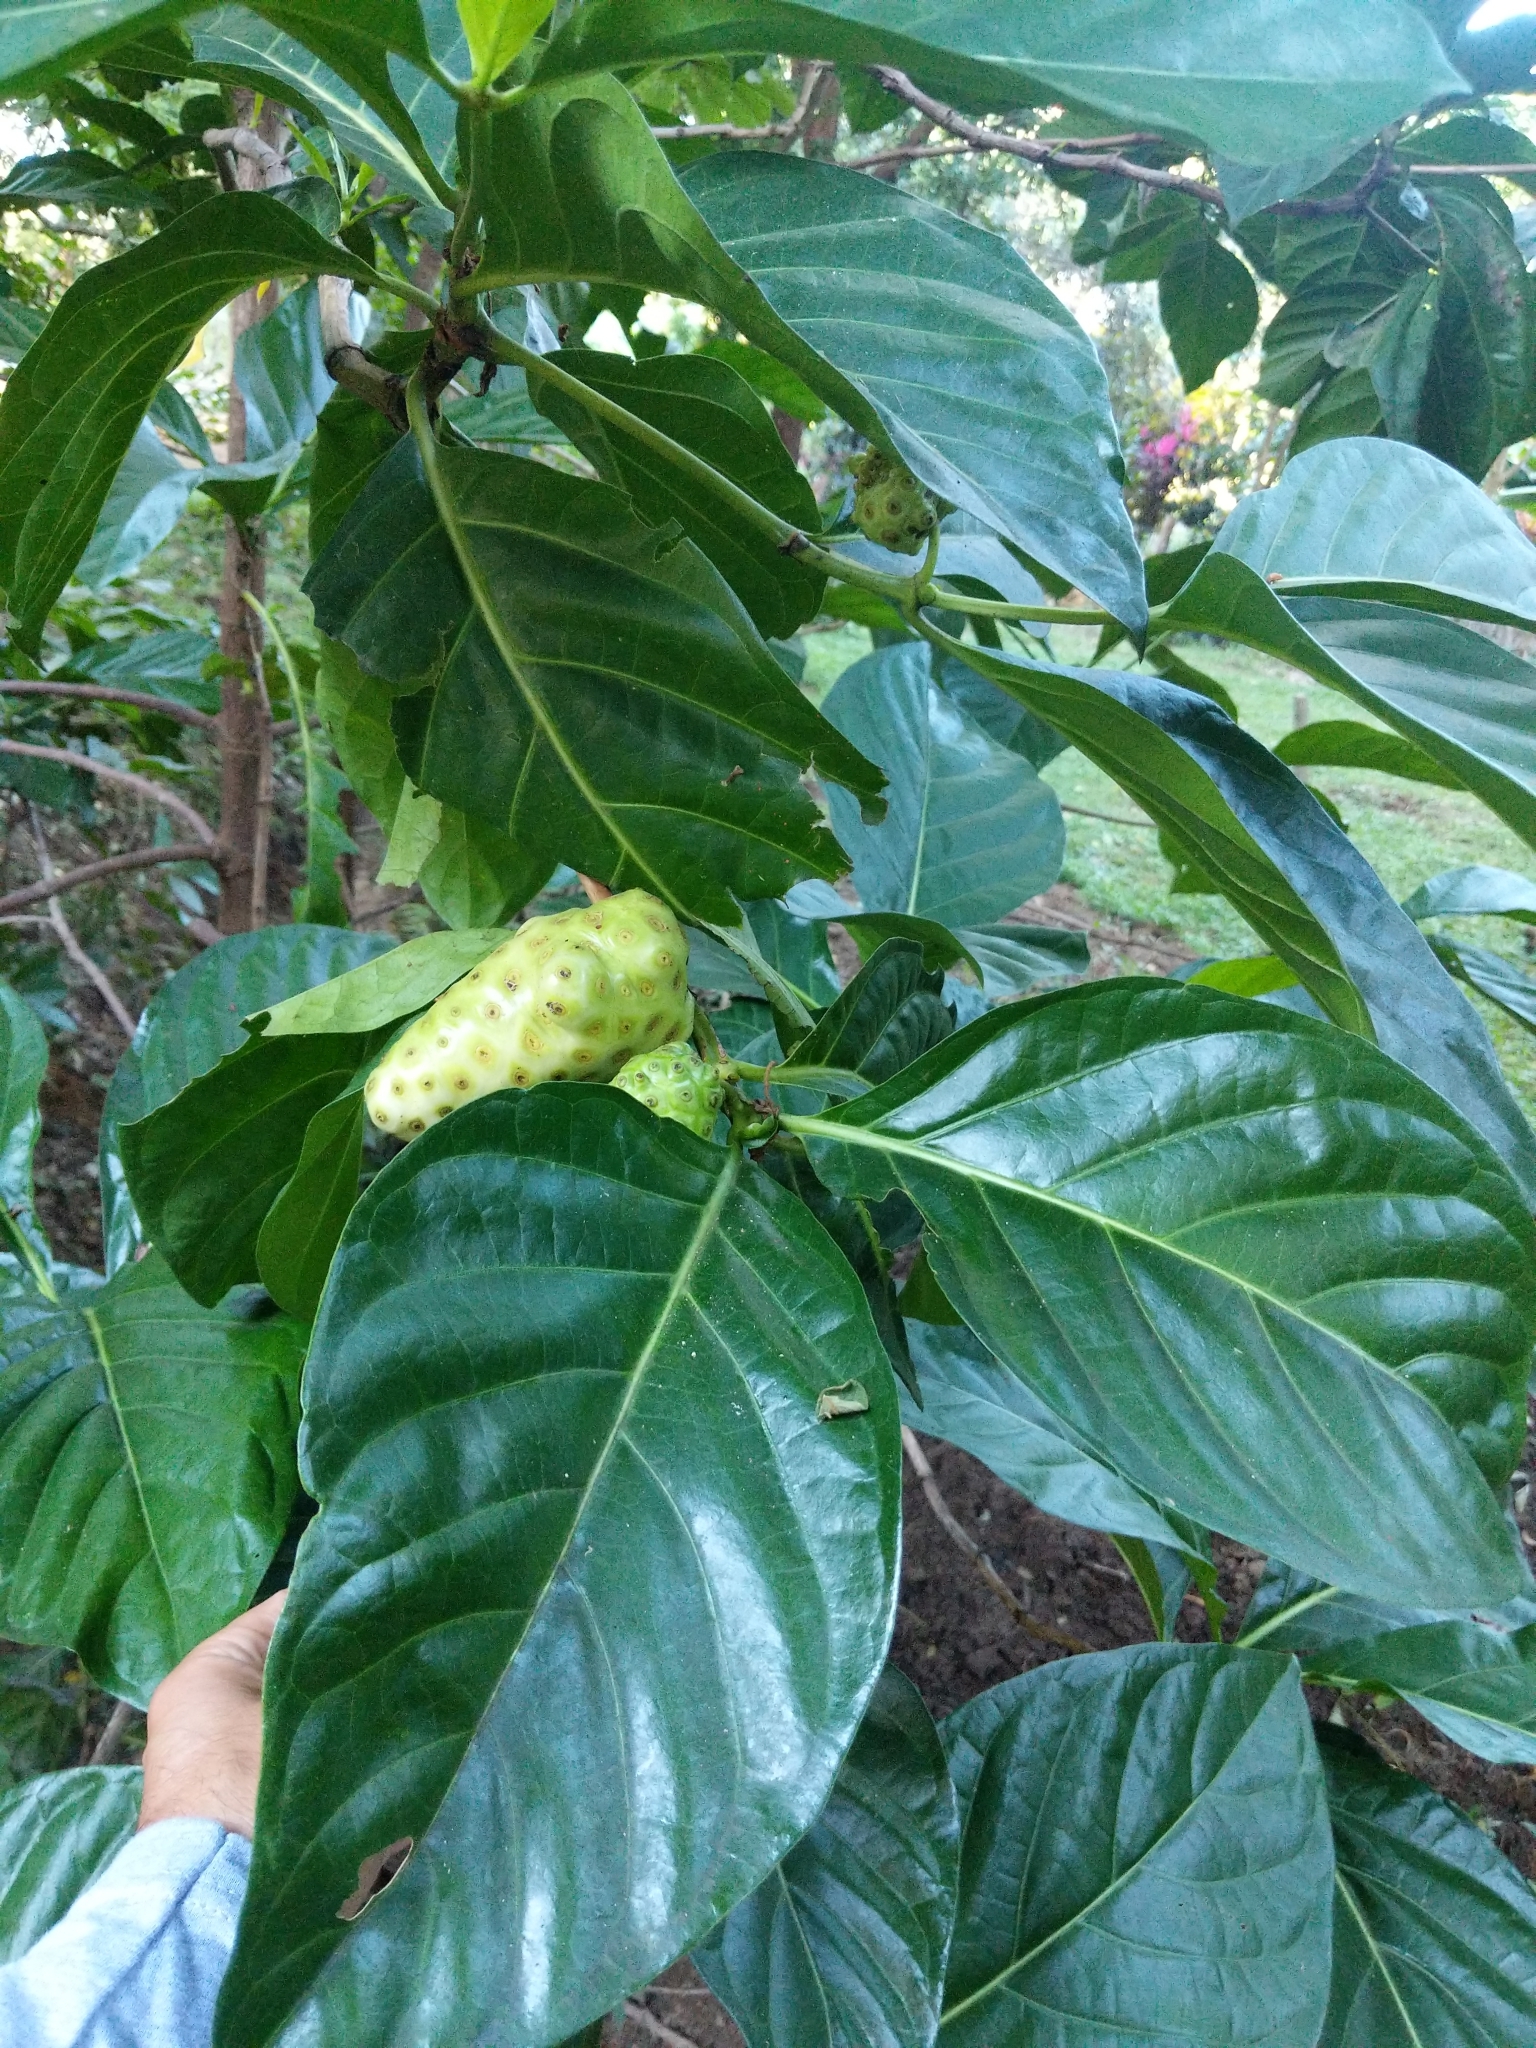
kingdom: Plantae
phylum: Tracheophyta
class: Magnoliopsida
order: Gentianales
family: Rubiaceae
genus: Morinda
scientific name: Morinda citrifolia
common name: Indian-mulberry
